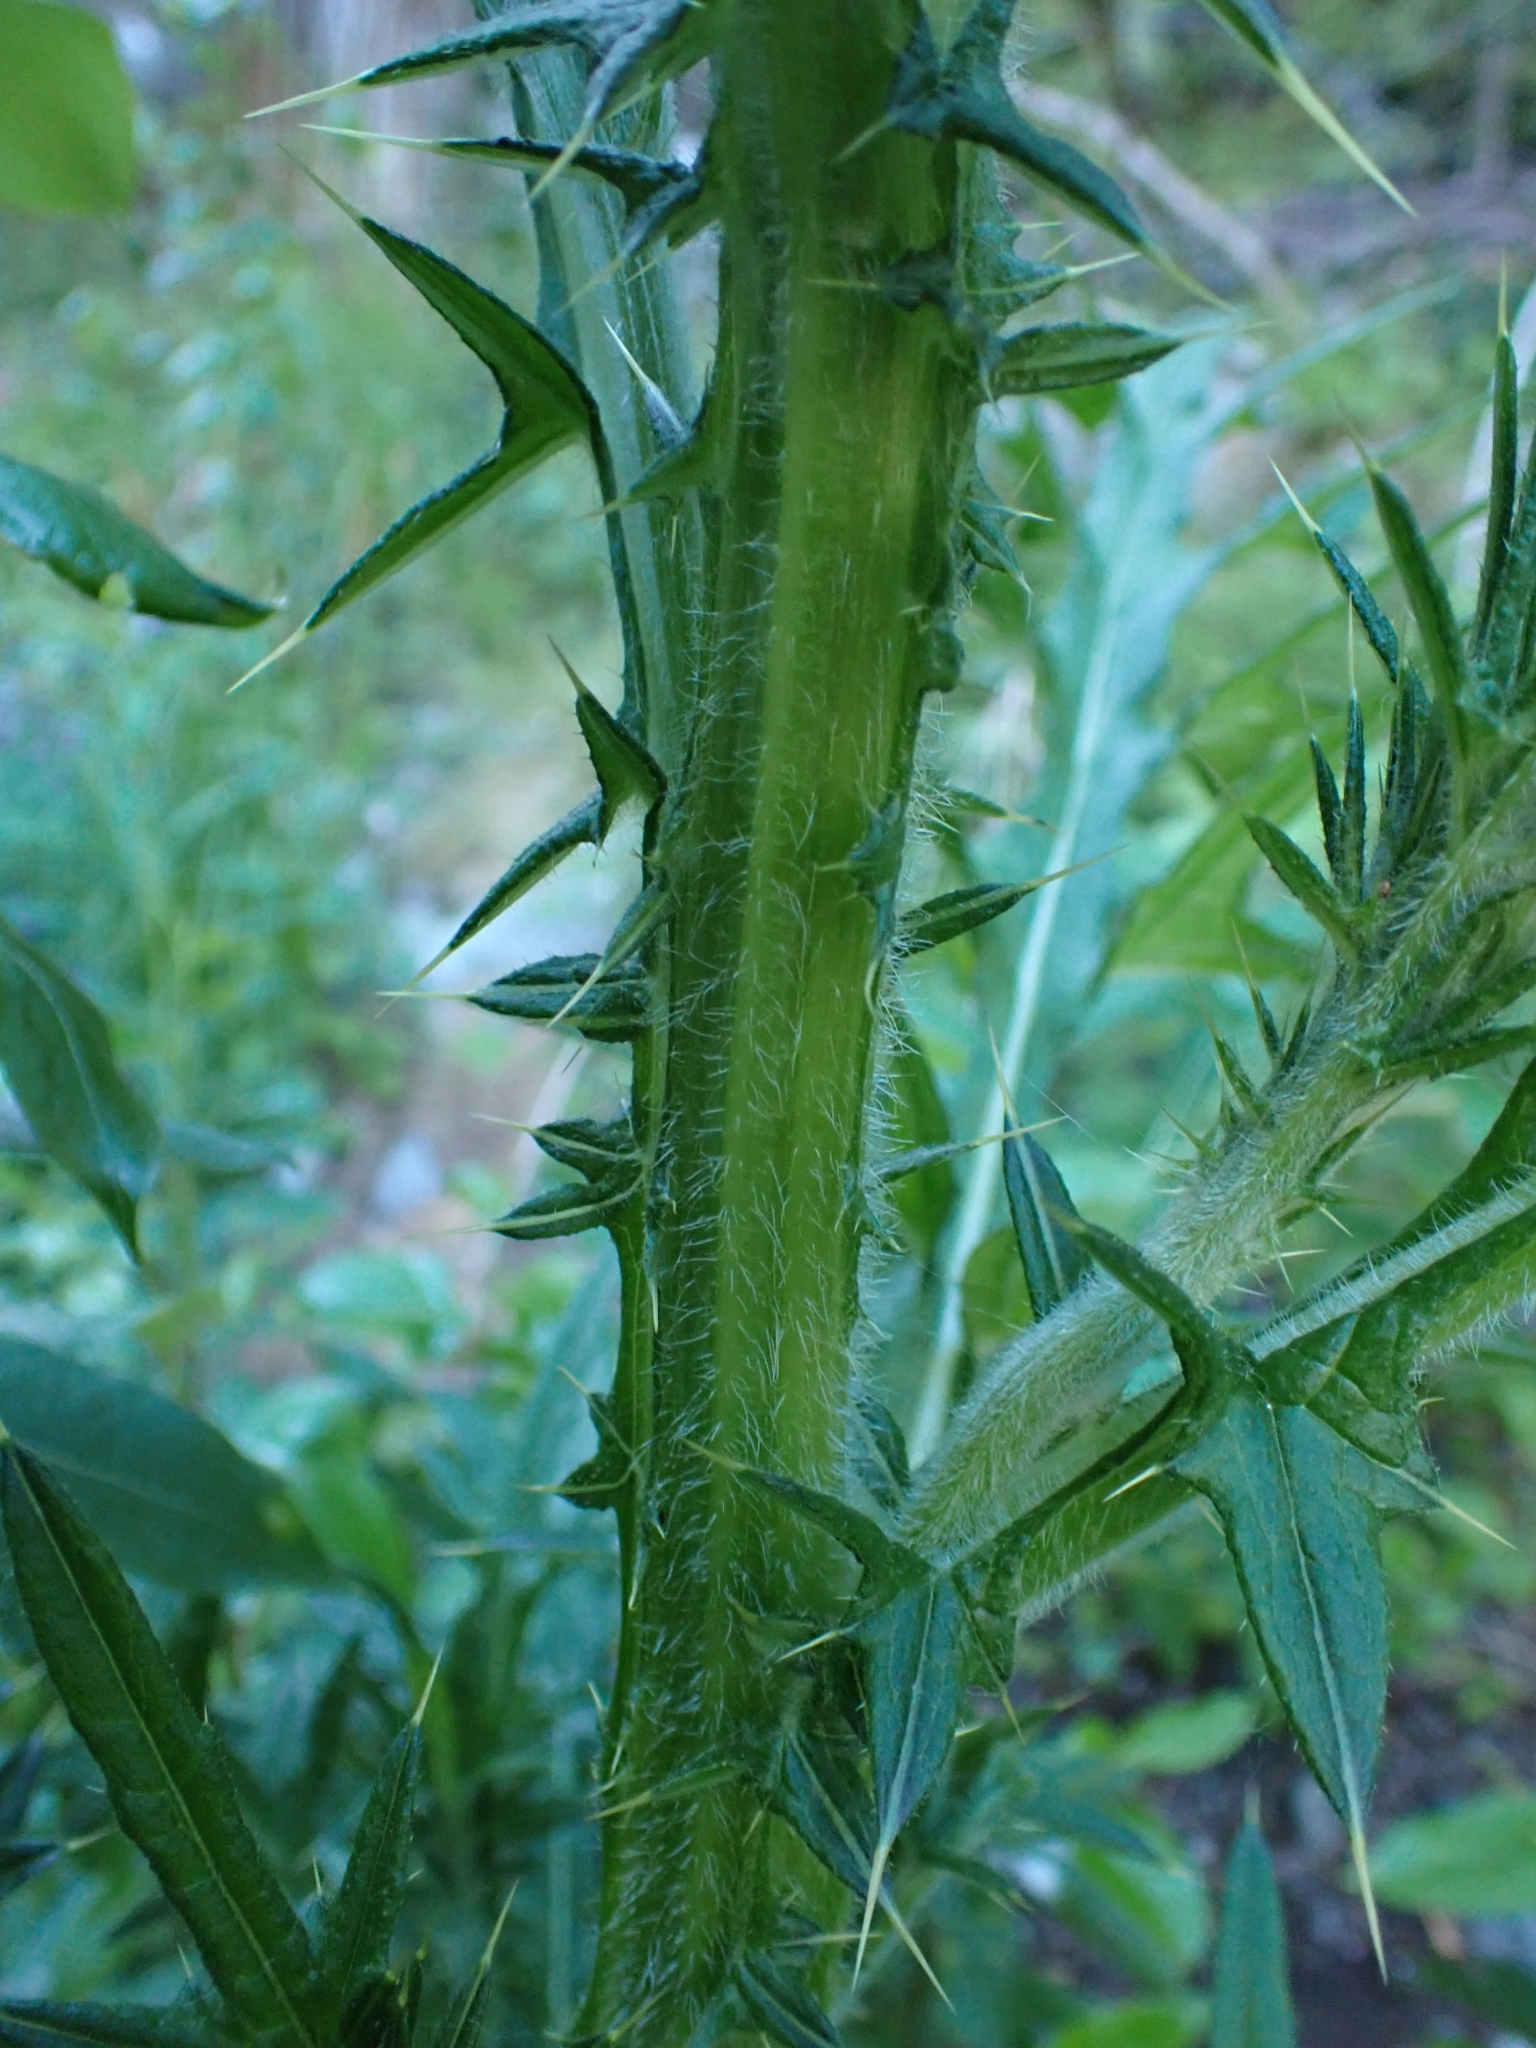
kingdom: Plantae
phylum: Tracheophyta
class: Magnoliopsida
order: Asterales
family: Asteraceae
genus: Cirsium
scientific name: Cirsium vulgare
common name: Bull thistle
